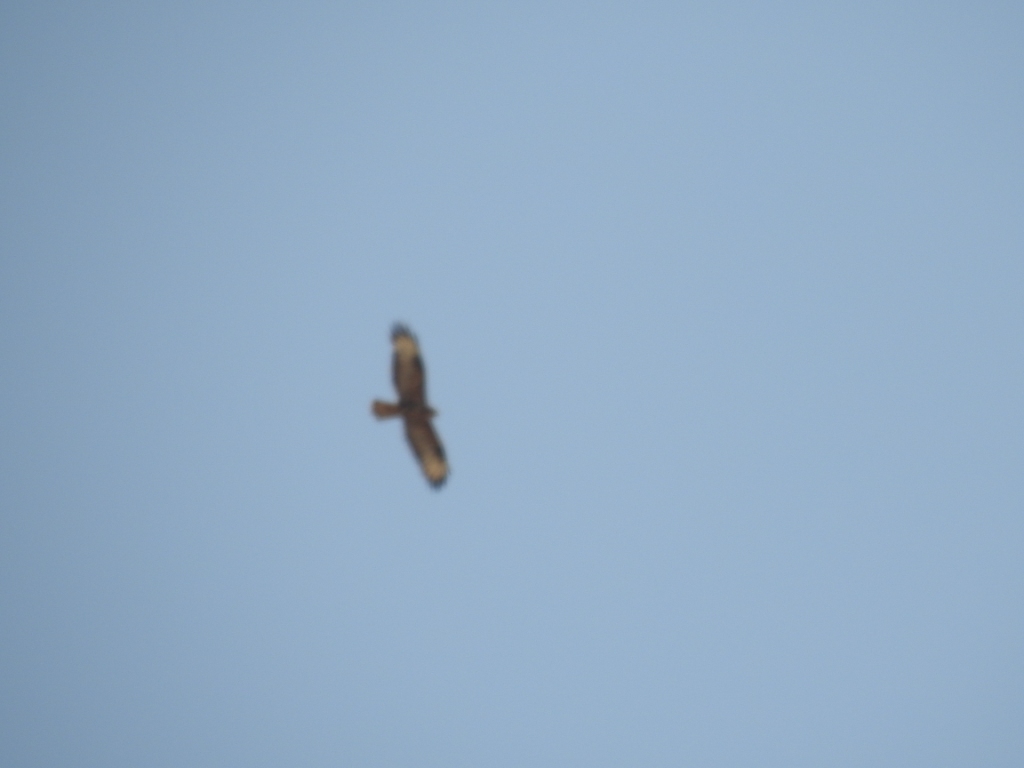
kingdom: Animalia
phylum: Chordata
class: Aves
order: Accipitriformes
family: Accipitridae
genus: Buteo
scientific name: Buteo rufinus
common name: Long-legged buzzard
